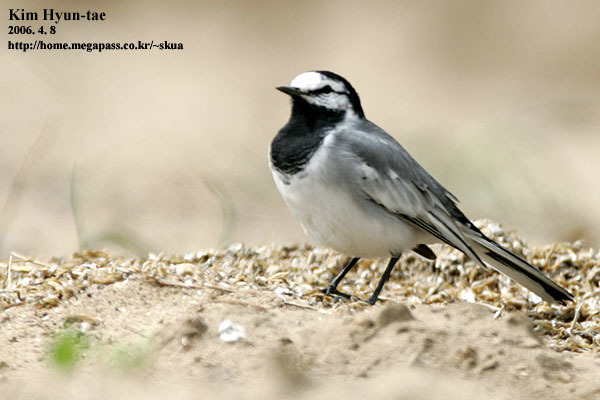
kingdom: Animalia
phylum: Chordata
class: Aves
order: Passeriformes
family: Motacillidae
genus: Motacilla
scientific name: Motacilla alba
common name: White wagtail
